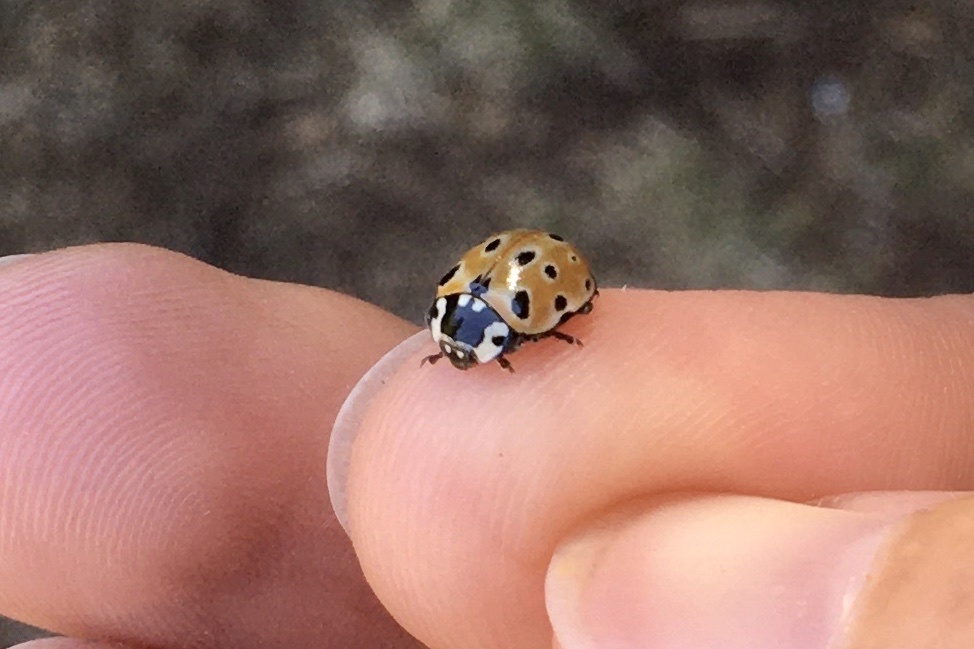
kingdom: Animalia
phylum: Arthropoda
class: Insecta
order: Coleoptera
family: Coccinellidae
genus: Anatis
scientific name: Anatis ocellata
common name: Eyed ladybird
